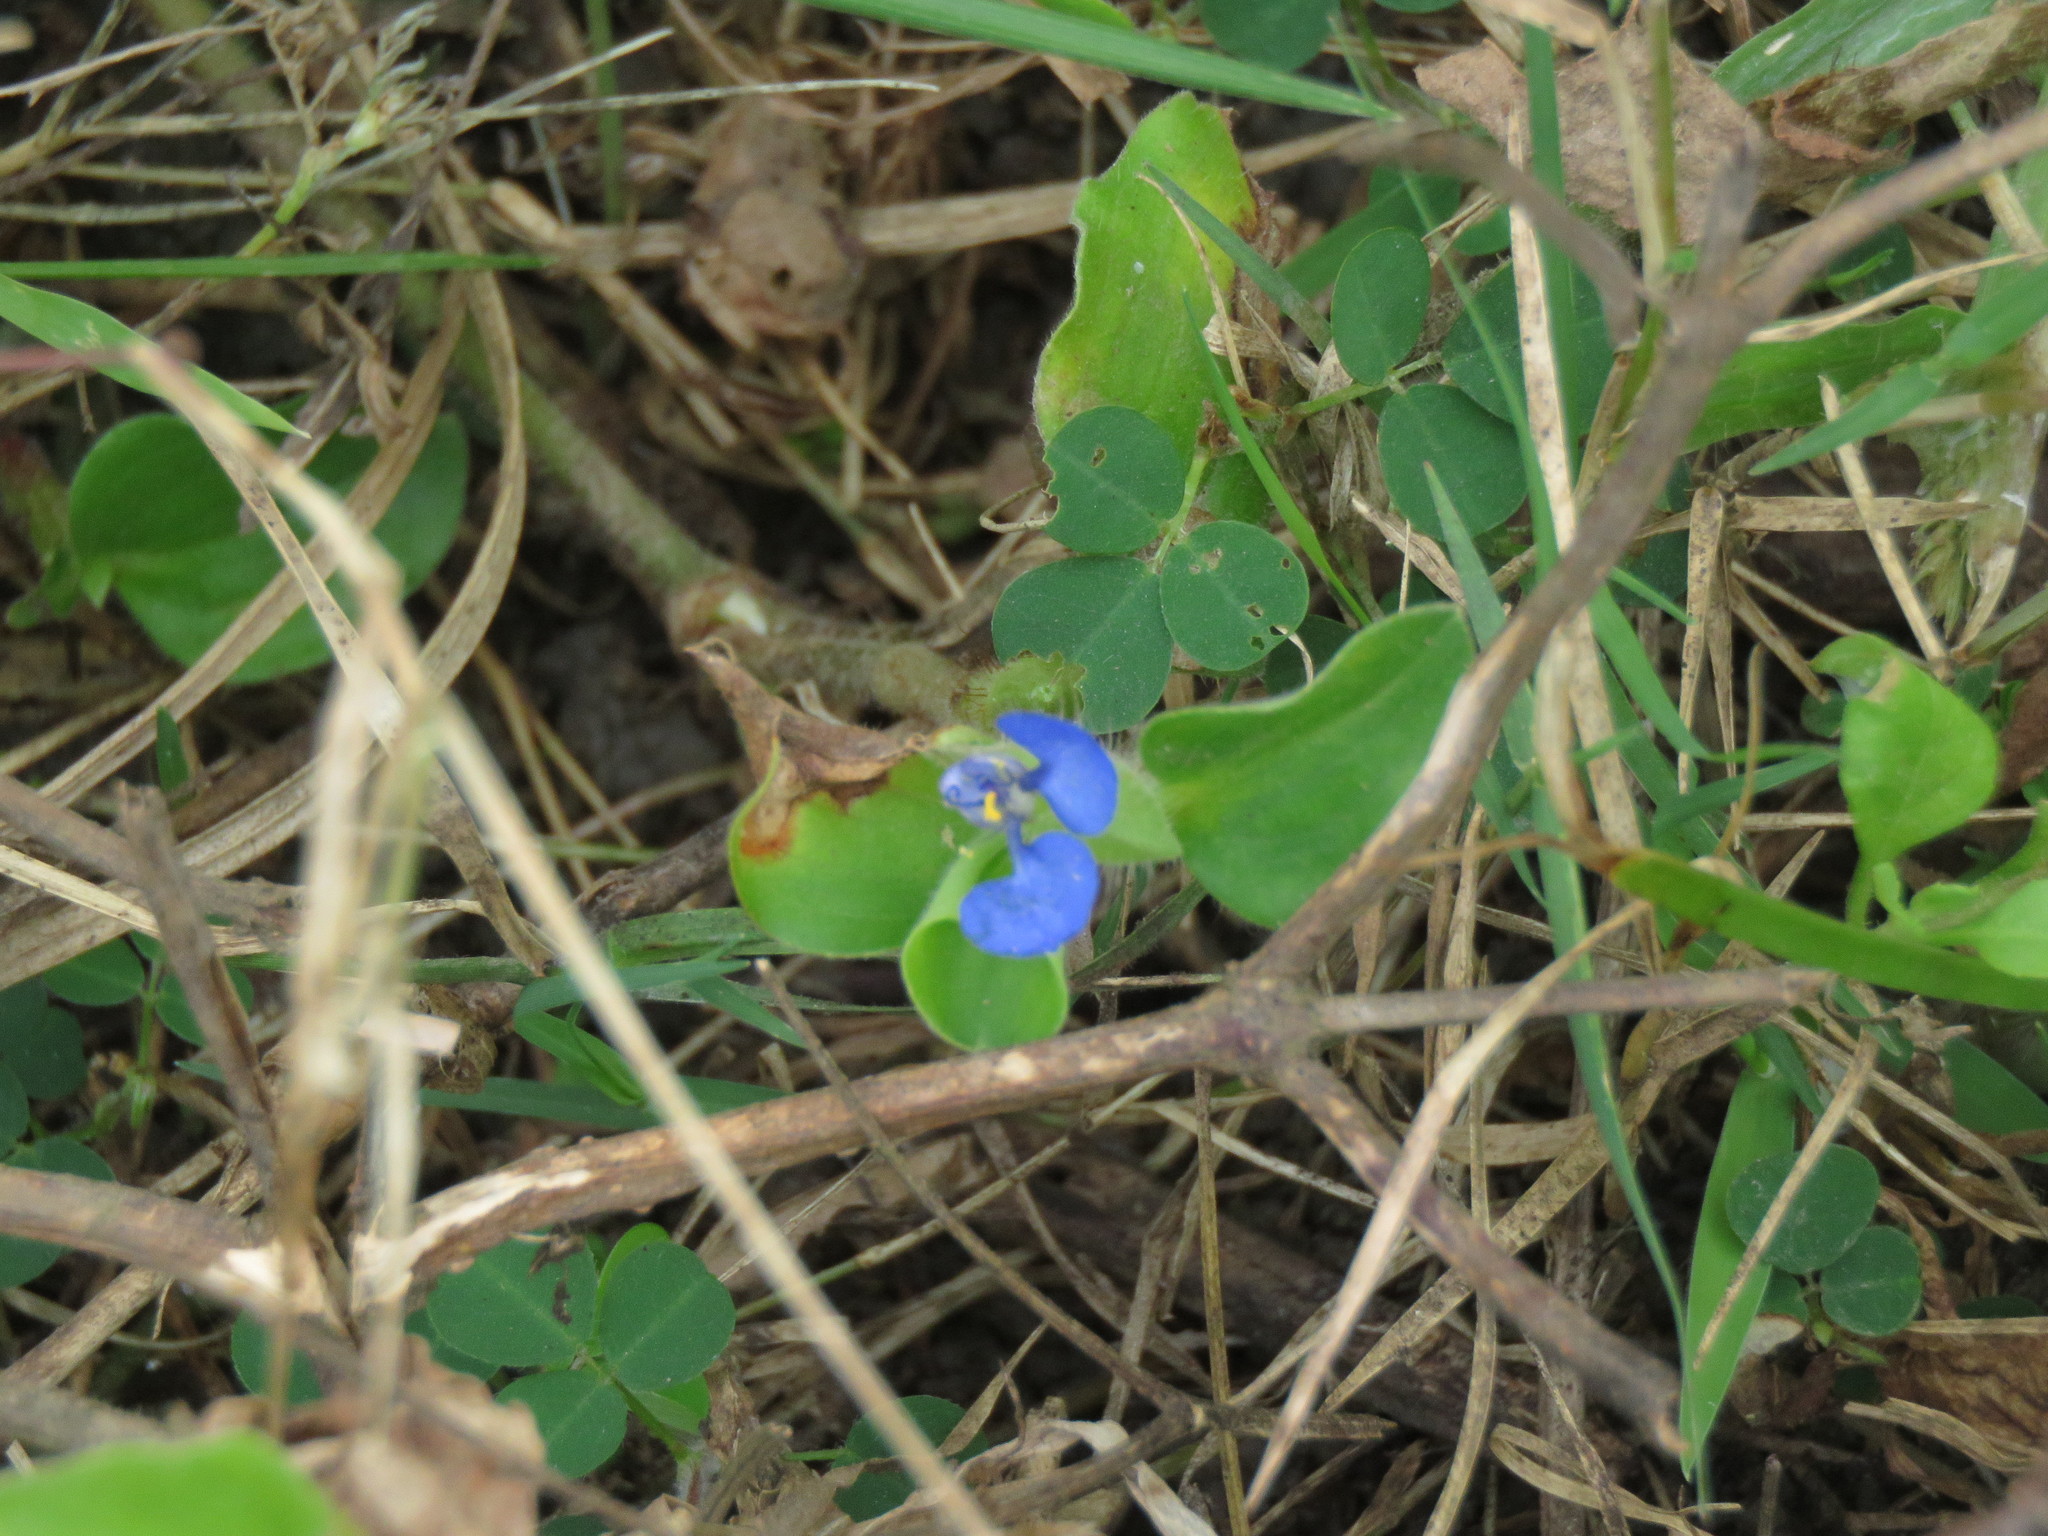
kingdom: Plantae
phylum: Tracheophyta
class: Liliopsida
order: Commelinales
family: Commelinaceae
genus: Commelina
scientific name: Commelina benghalensis
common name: Jio
